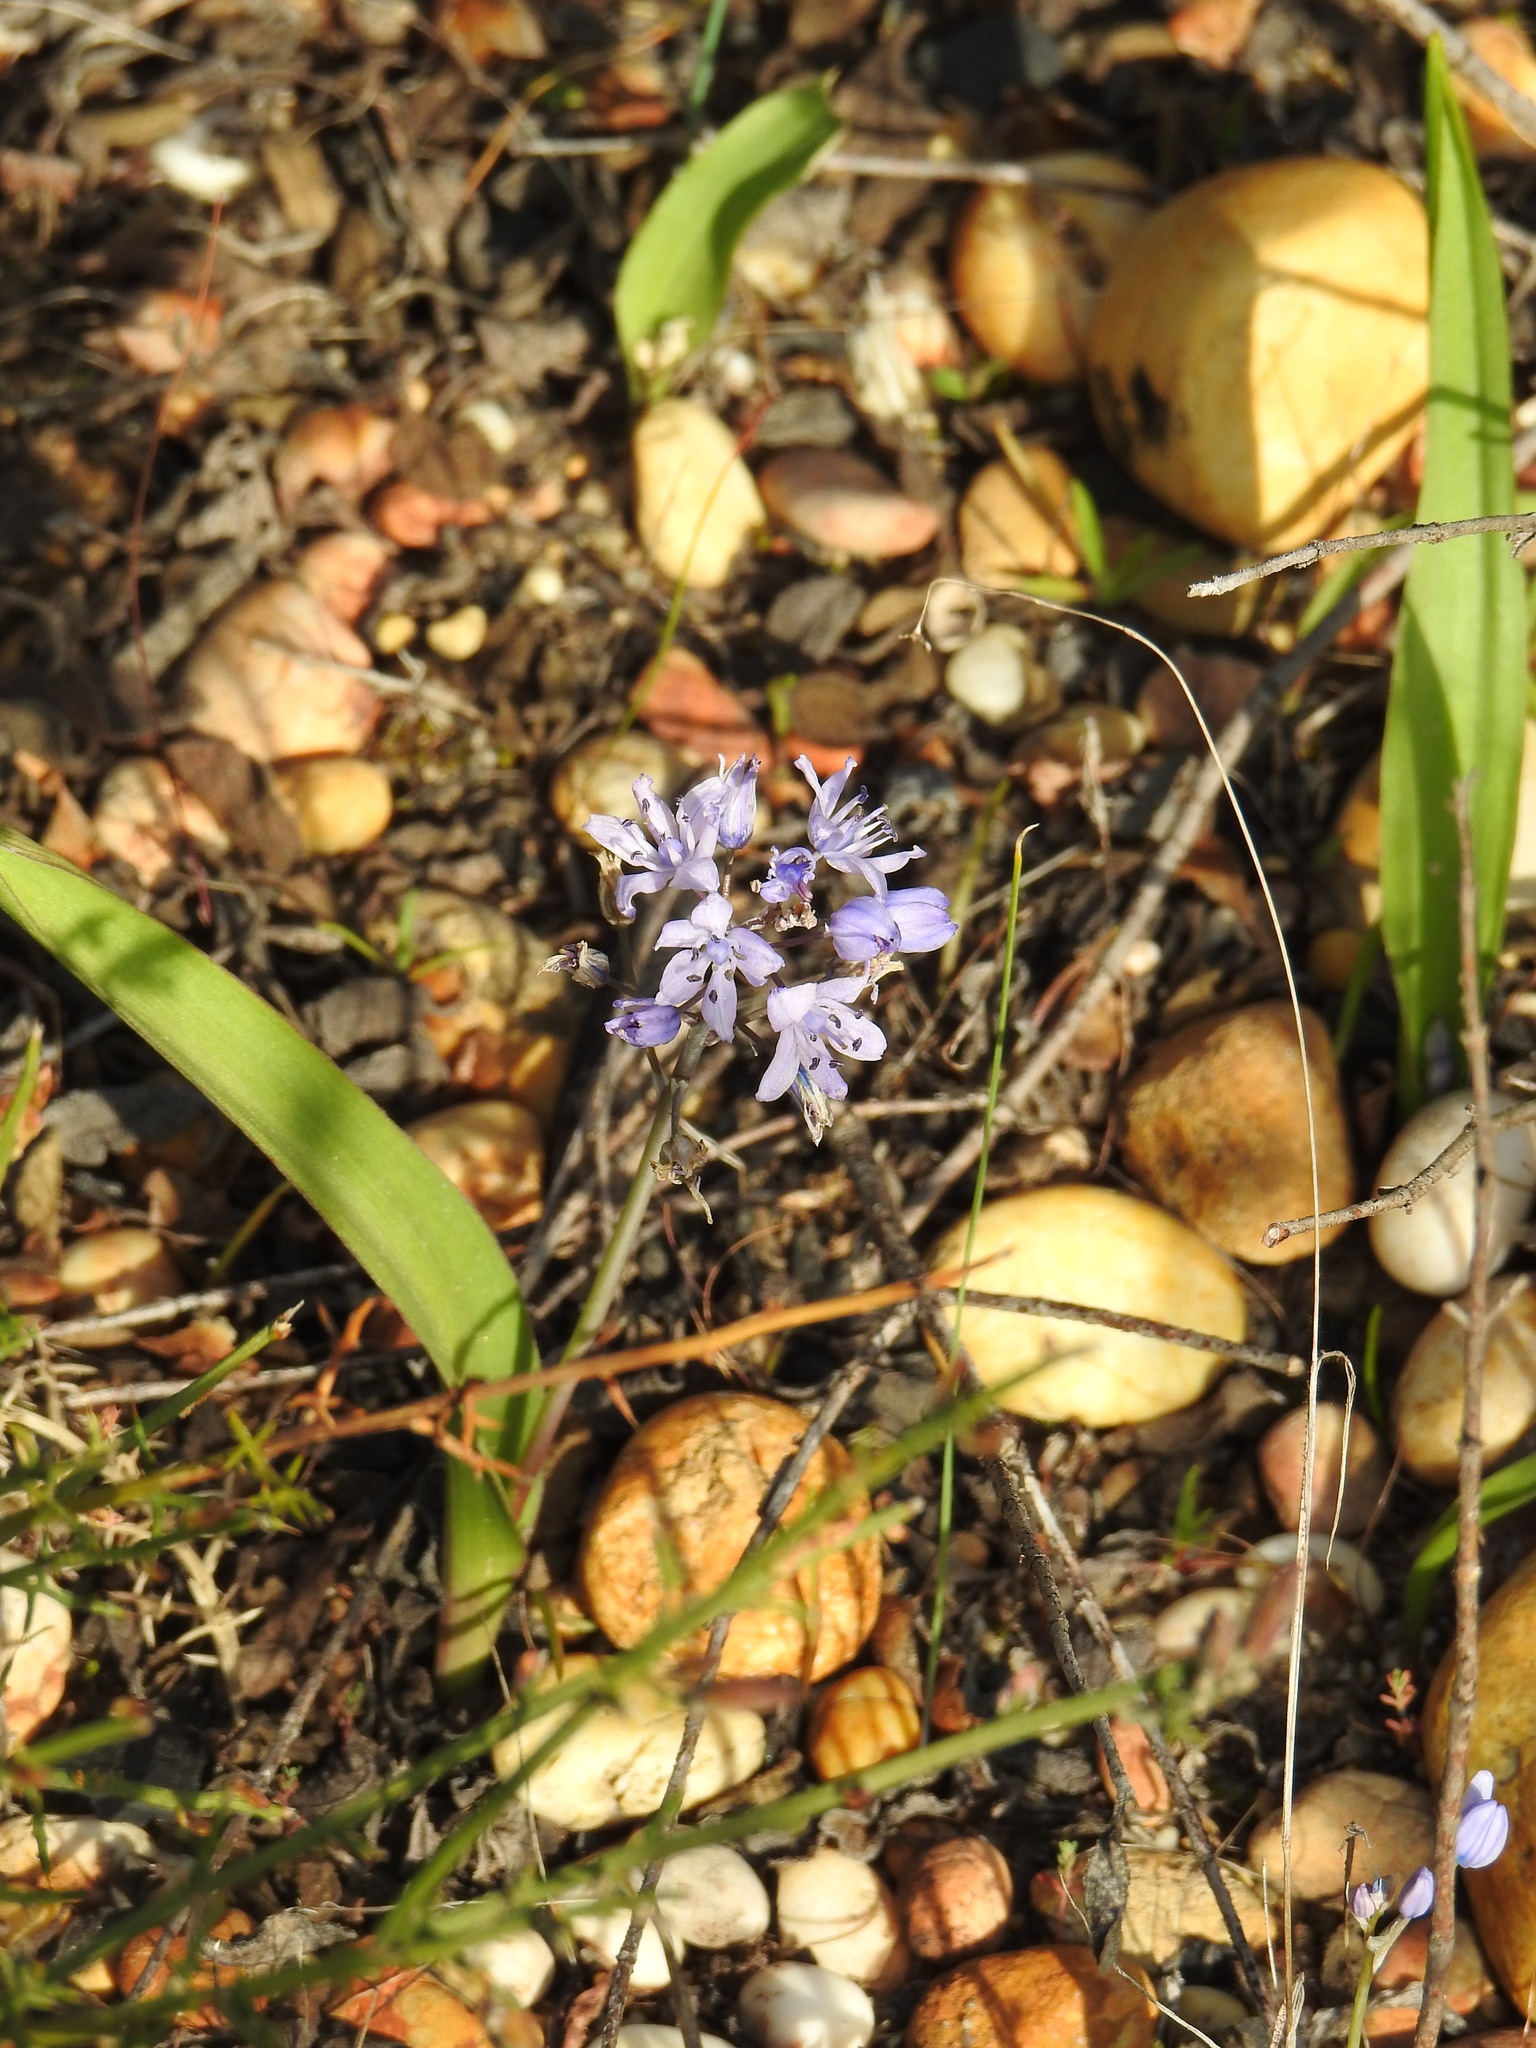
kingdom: Plantae
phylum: Tracheophyta
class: Liliopsida
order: Asparagales
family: Asparagaceae
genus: Scilla
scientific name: Scilla monophyllos
